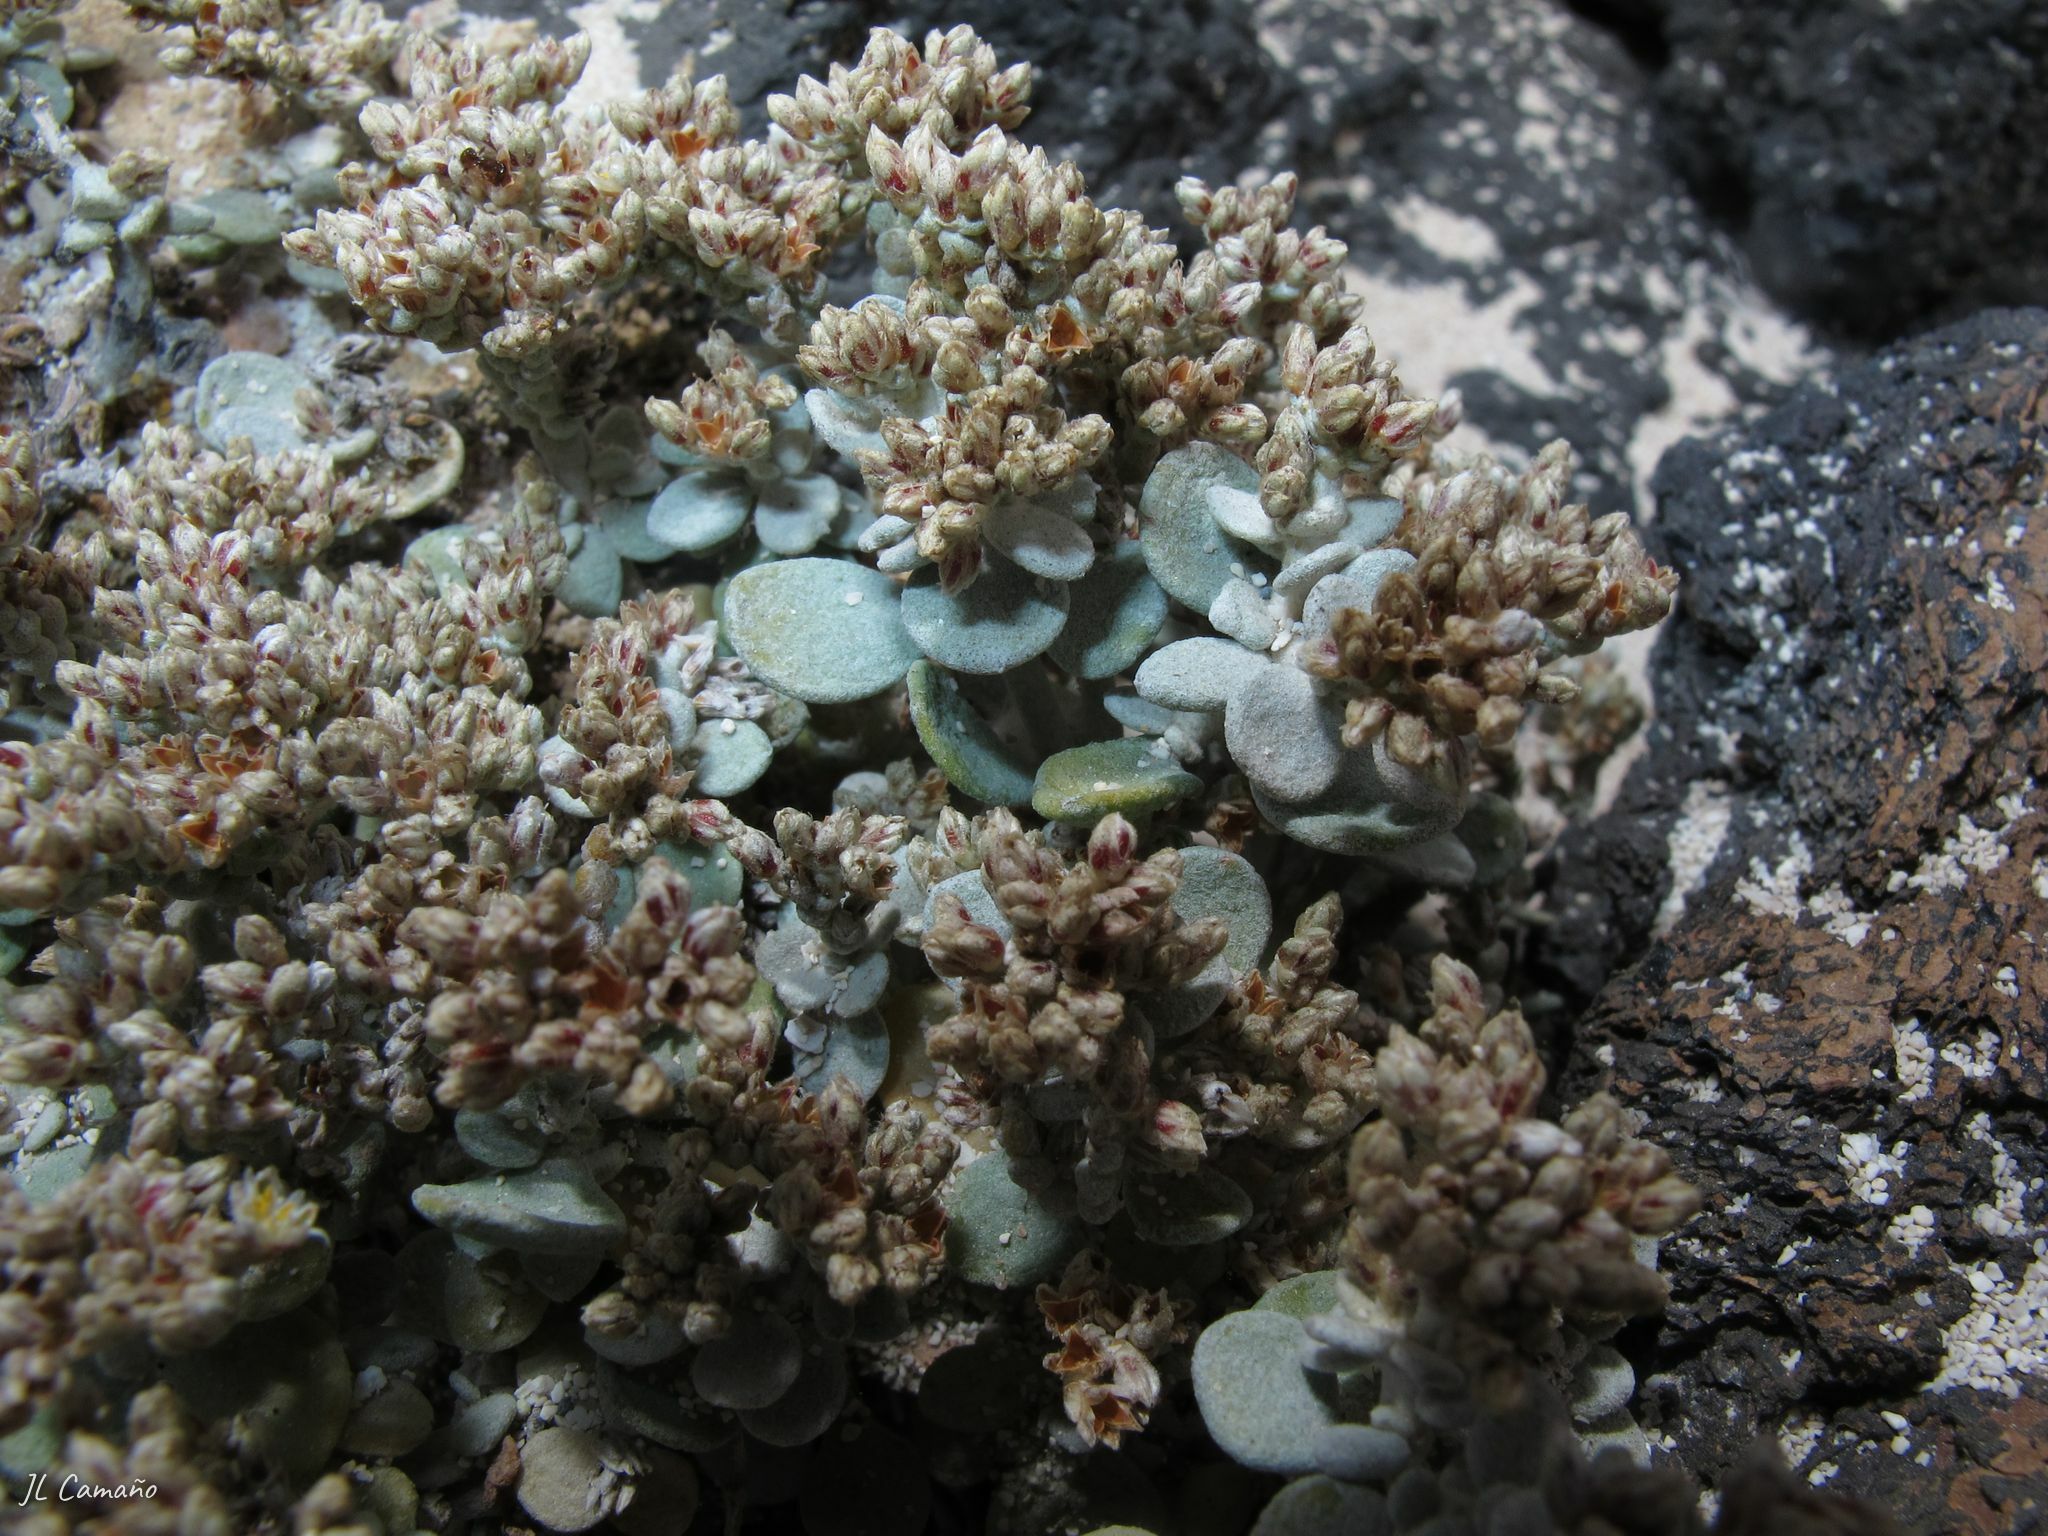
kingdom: Plantae
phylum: Tracheophyta
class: Magnoliopsida
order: Caryophyllales
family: Caryophyllaceae
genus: Polycarpaea
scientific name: Polycarpaea nivea
